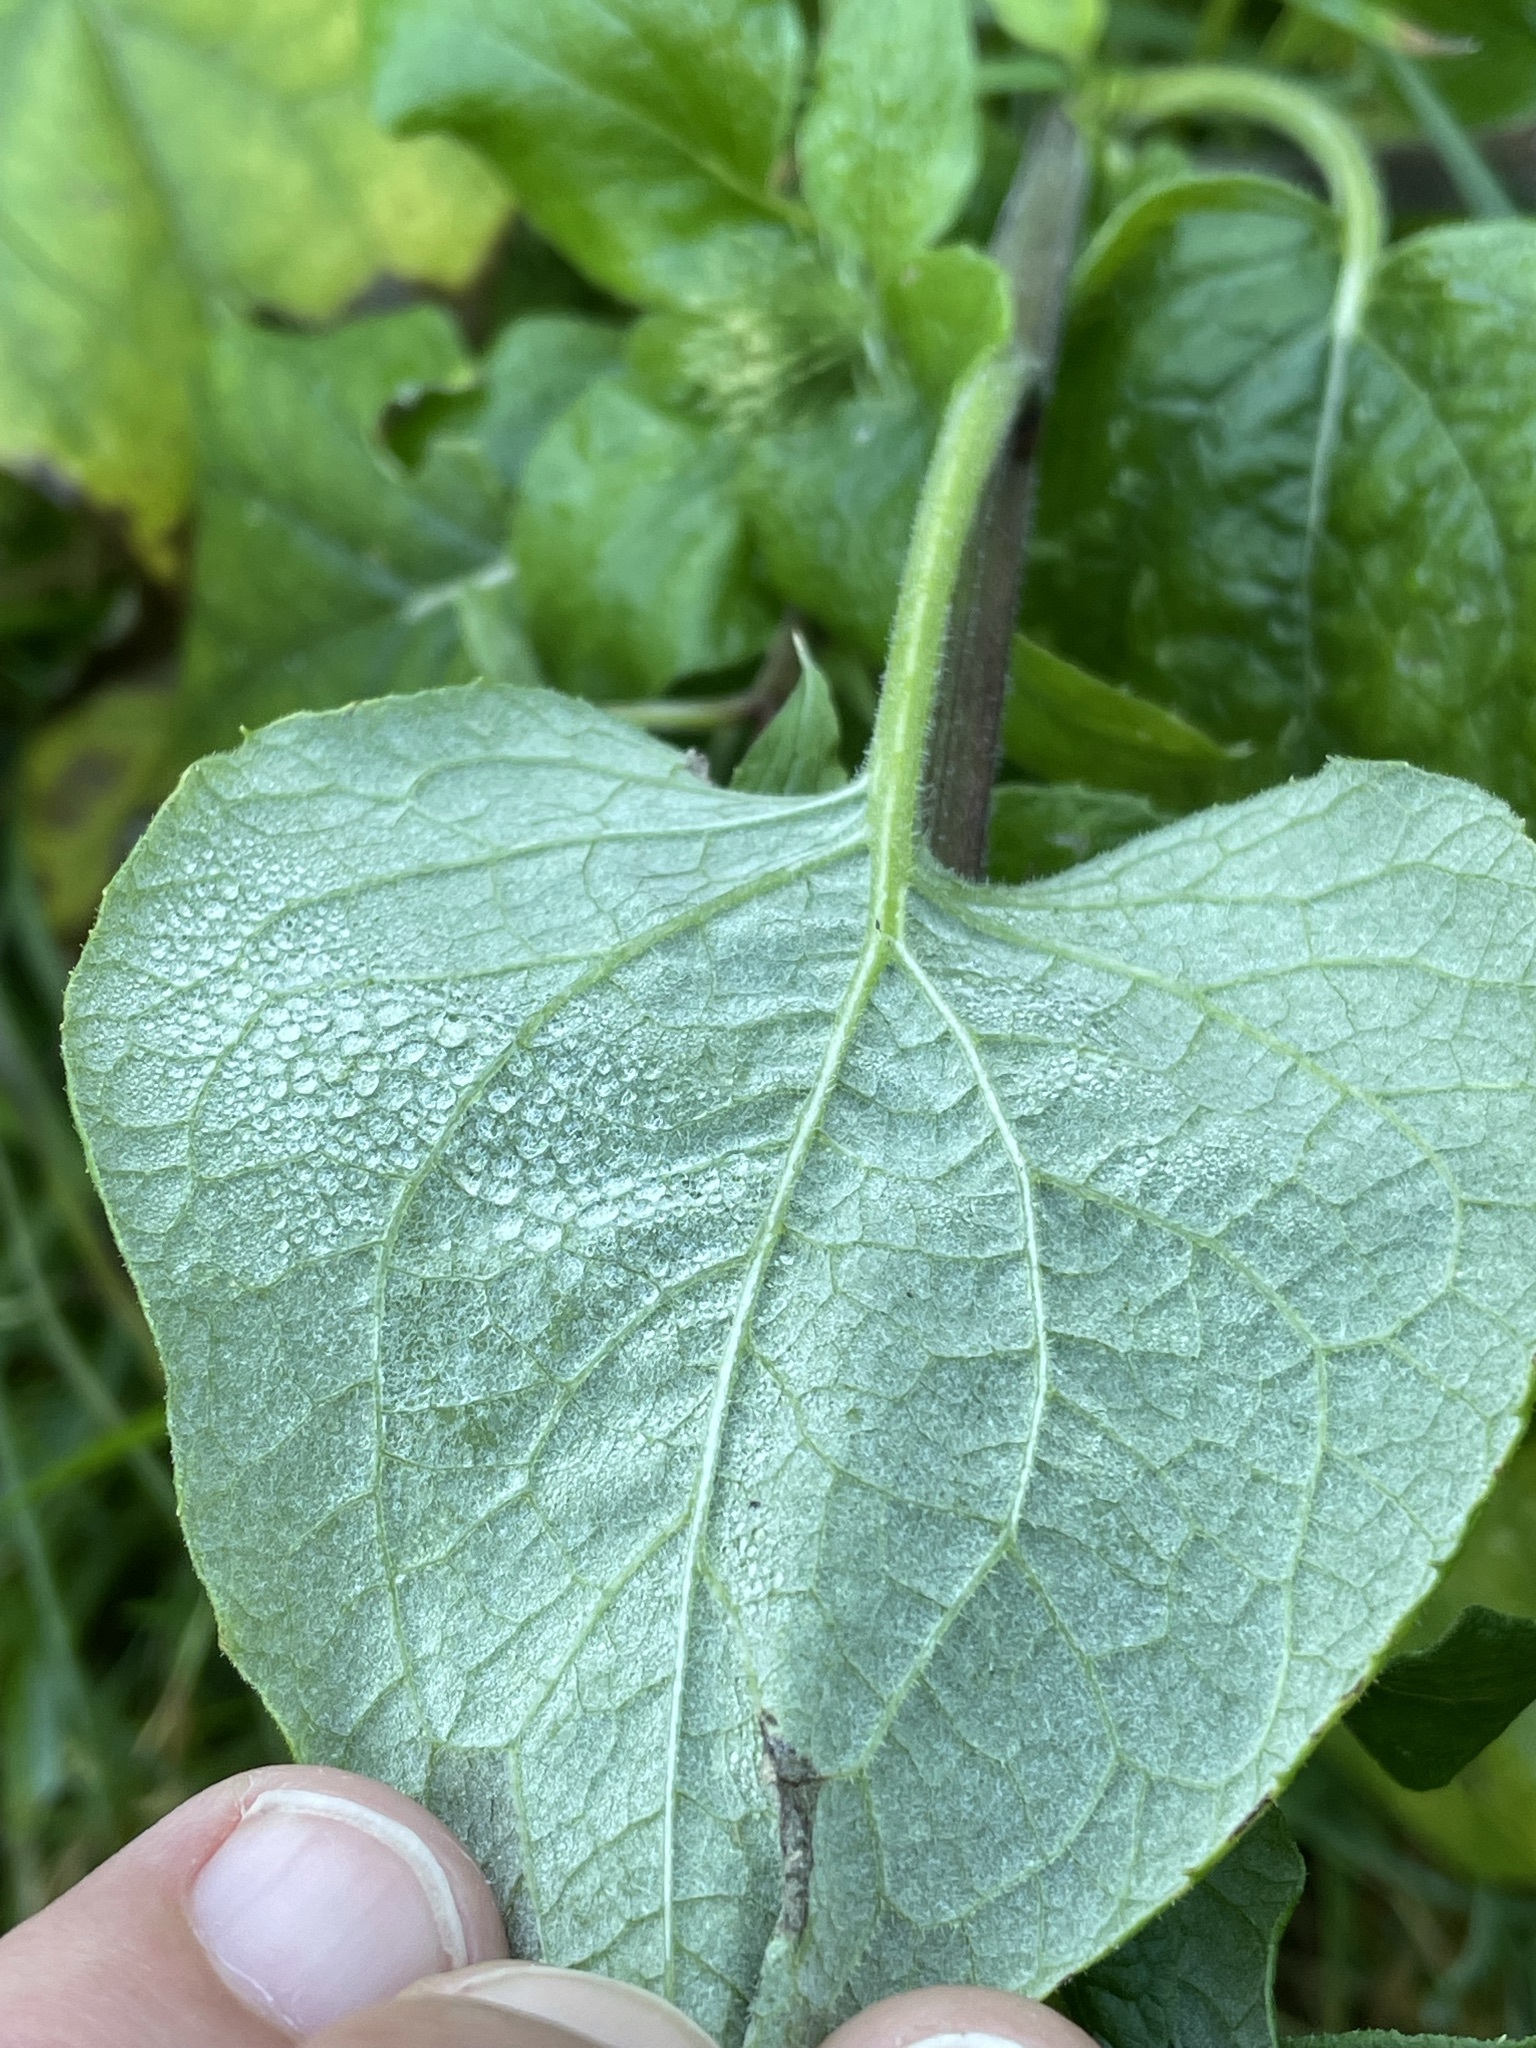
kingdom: Plantae
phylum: Tracheophyta
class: Magnoliopsida
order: Asterales
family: Asteraceae
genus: Arctium
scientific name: Arctium lappa
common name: Greater burdock
